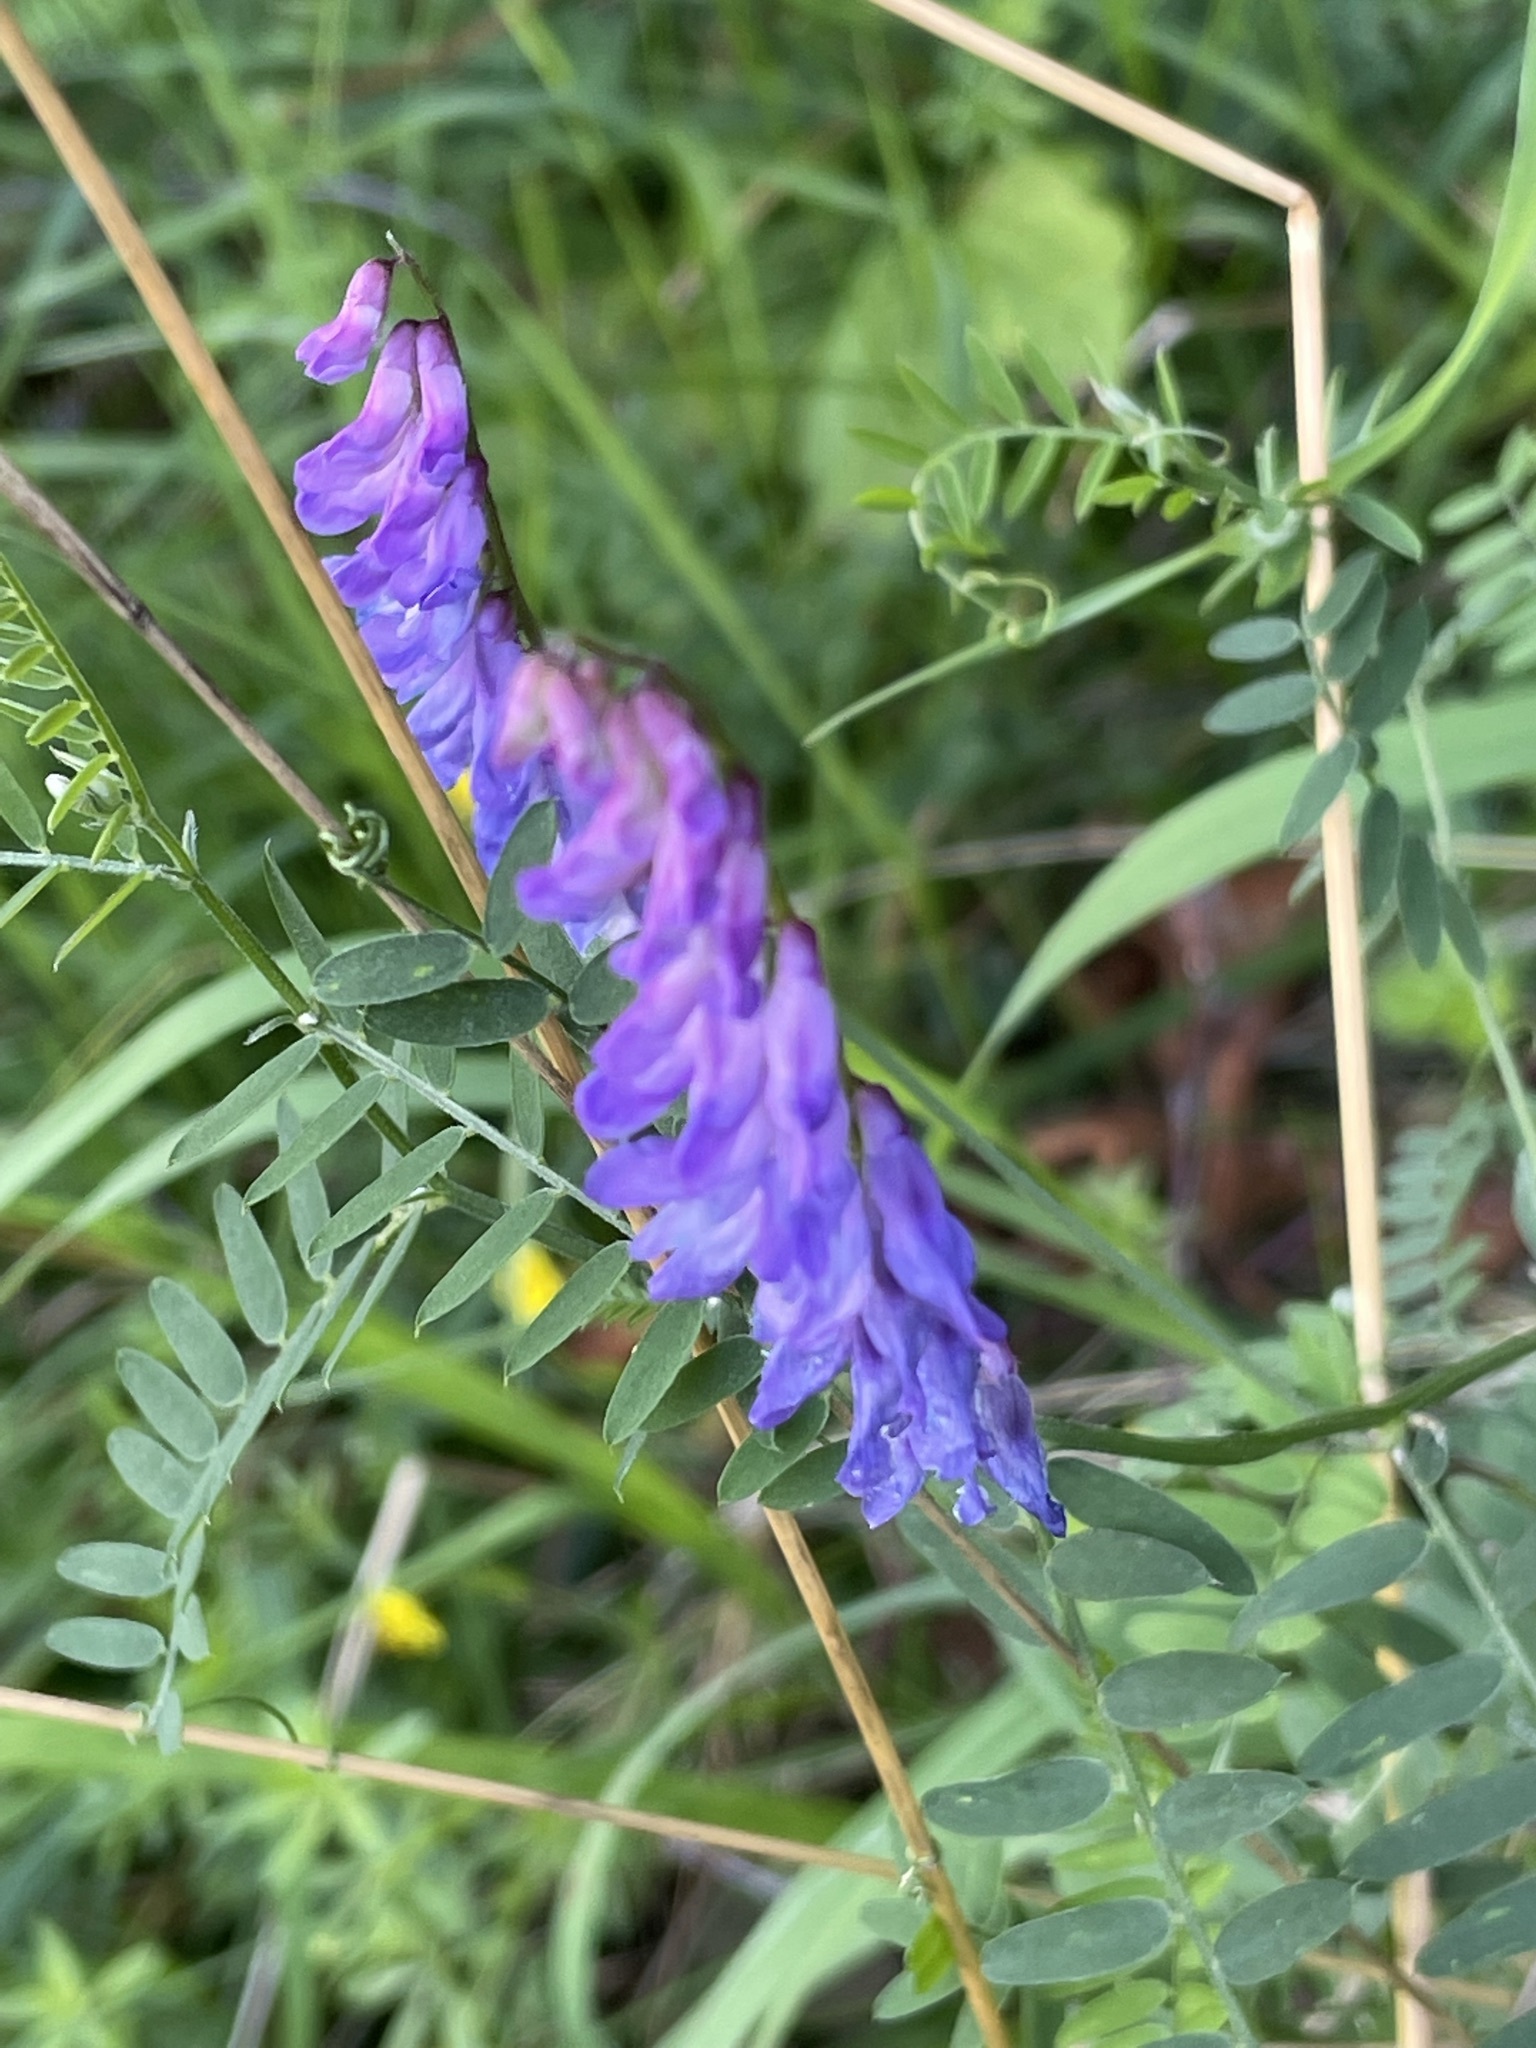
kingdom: Plantae
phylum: Tracheophyta
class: Magnoliopsida
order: Fabales
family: Fabaceae
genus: Vicia
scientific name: Vicia cracca
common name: Bird vetch
